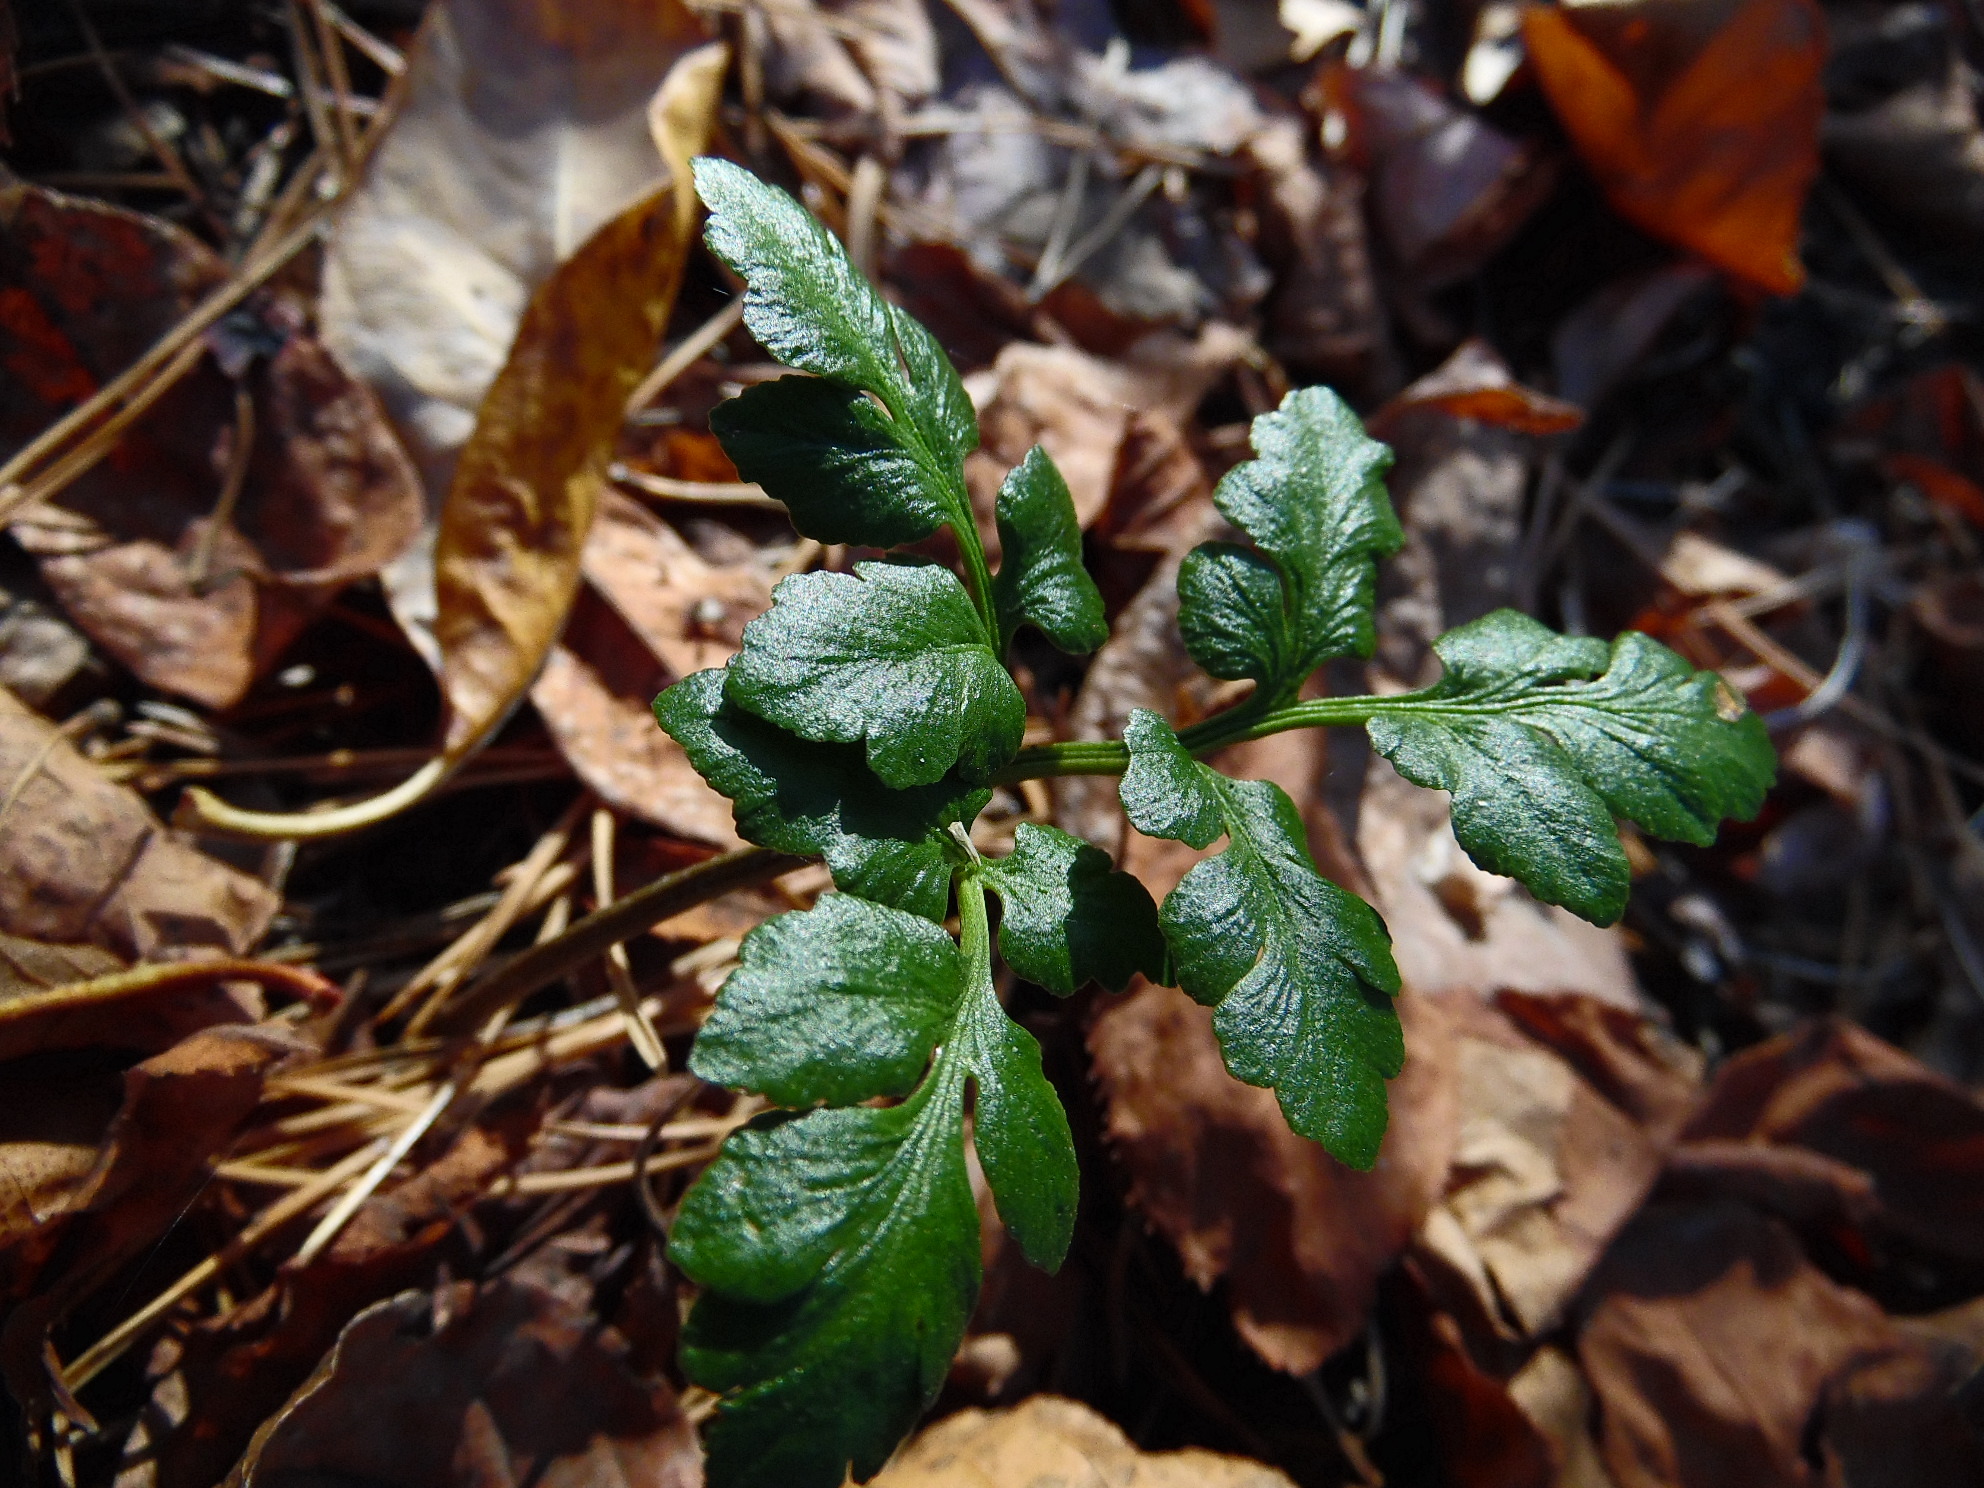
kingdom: Plantae
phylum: Tracheophyta
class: Polypodiopsida
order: Ophioglossales
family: Ophioglossaceae
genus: Sceptridium
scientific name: Sceptridium multifidum
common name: Leathery grape fern
